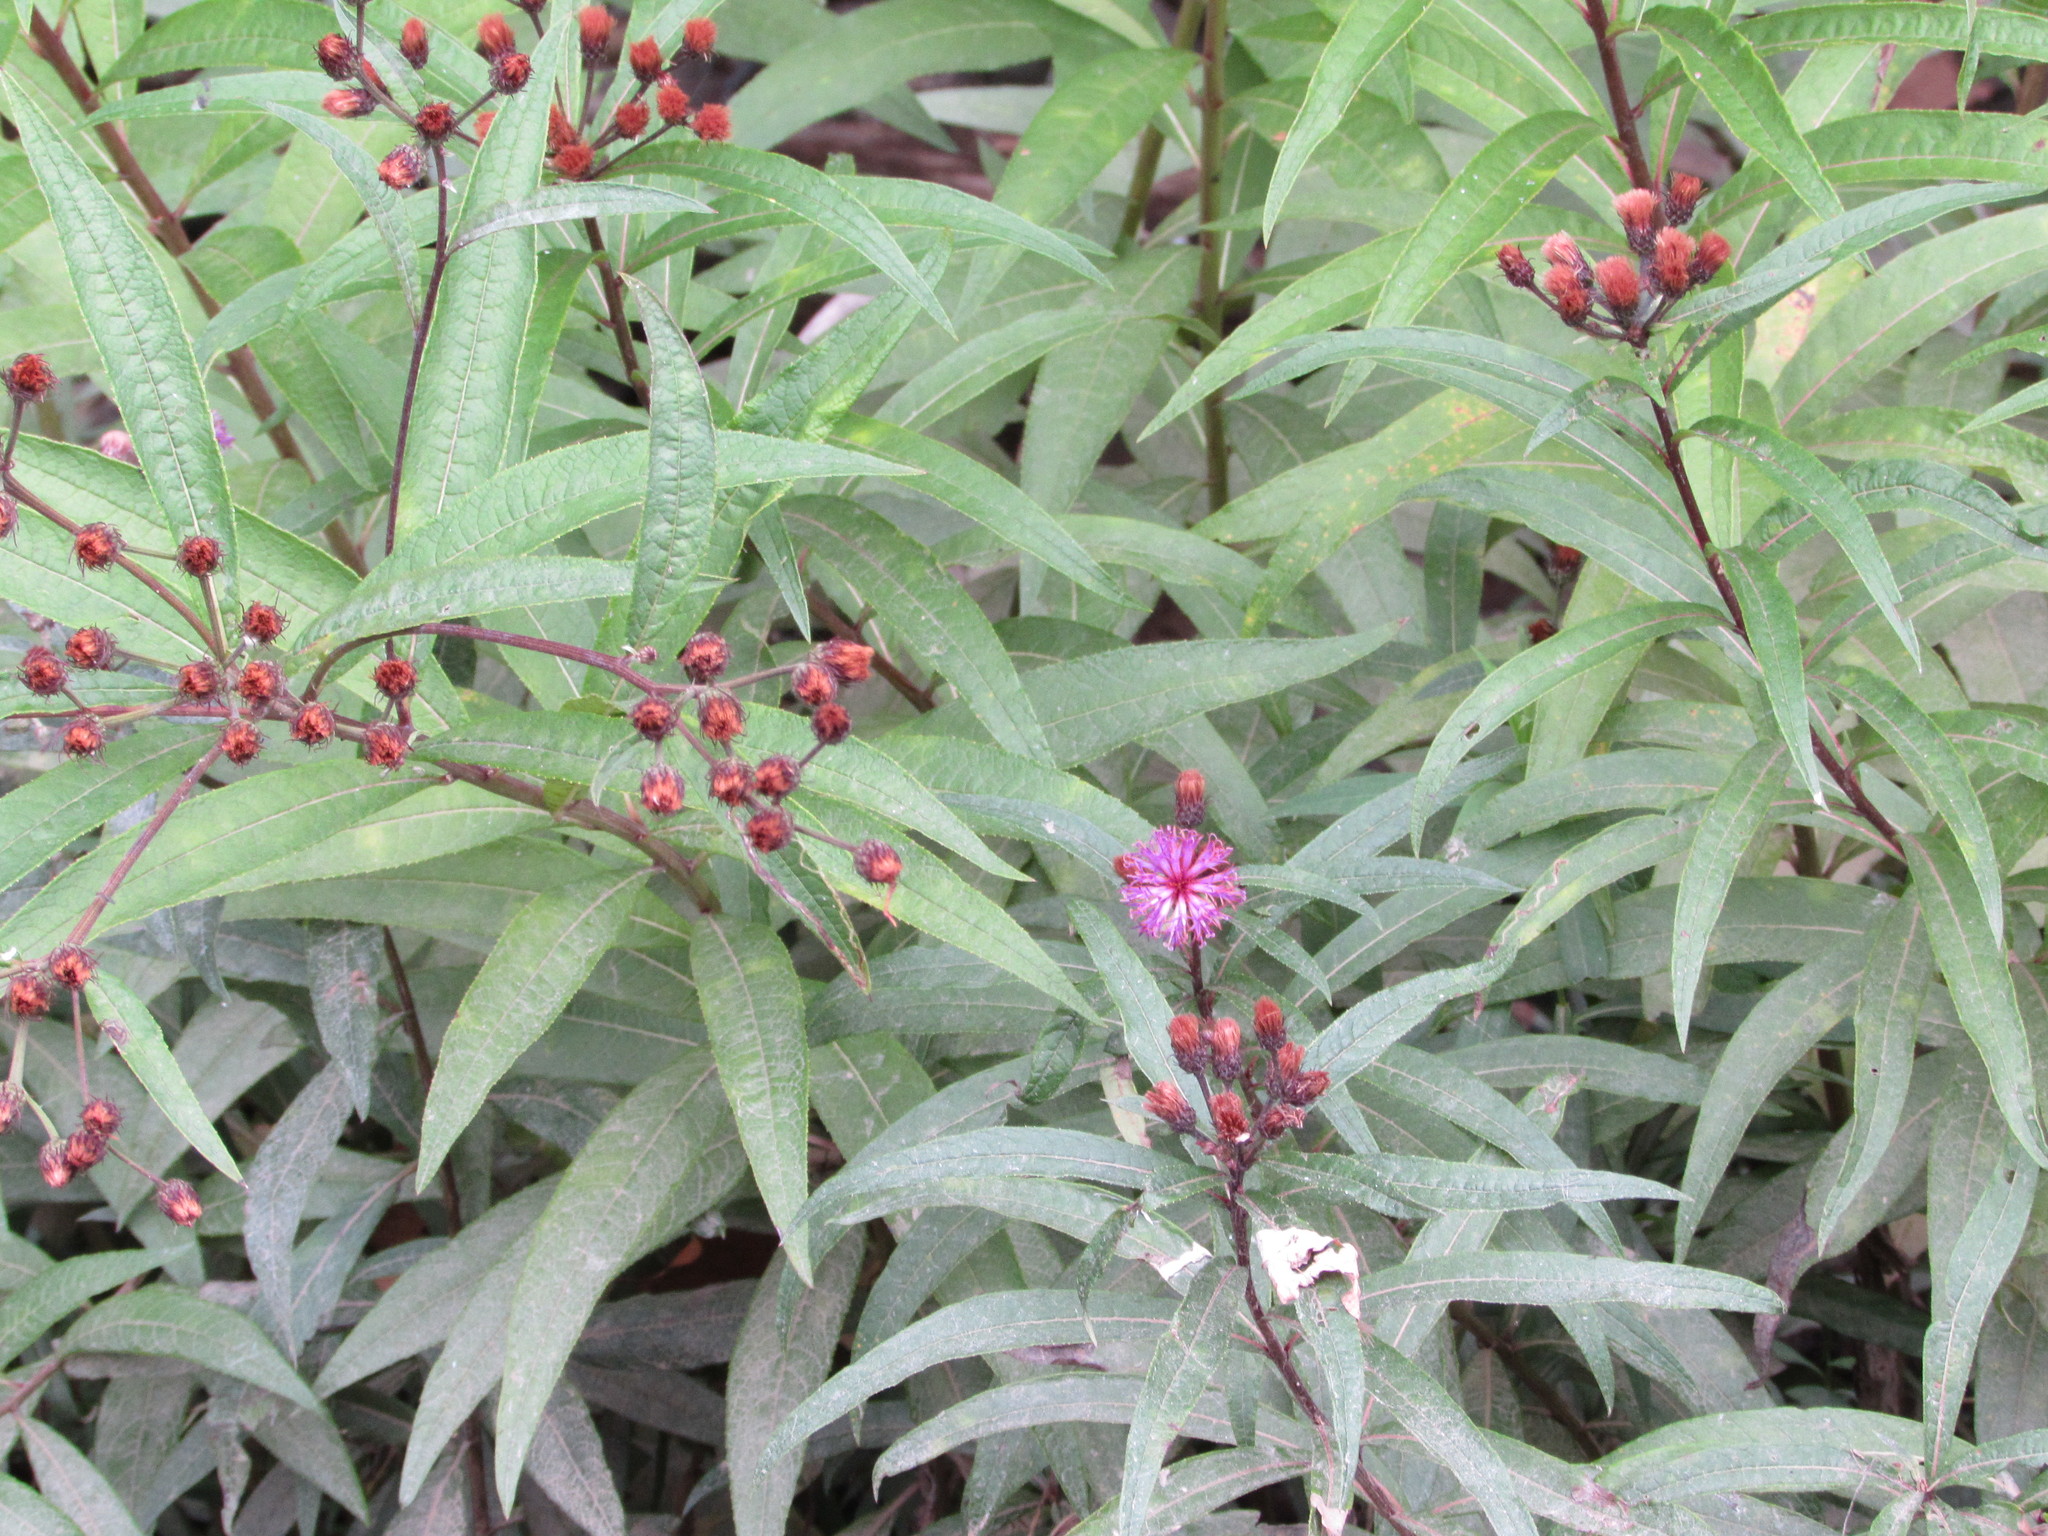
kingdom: Plantae
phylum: Tracheophyta
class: Magnoliopsida
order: Asterales
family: Asteraceae
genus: Vernonia
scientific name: Vernonia noveboracensis
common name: New york ironweed
